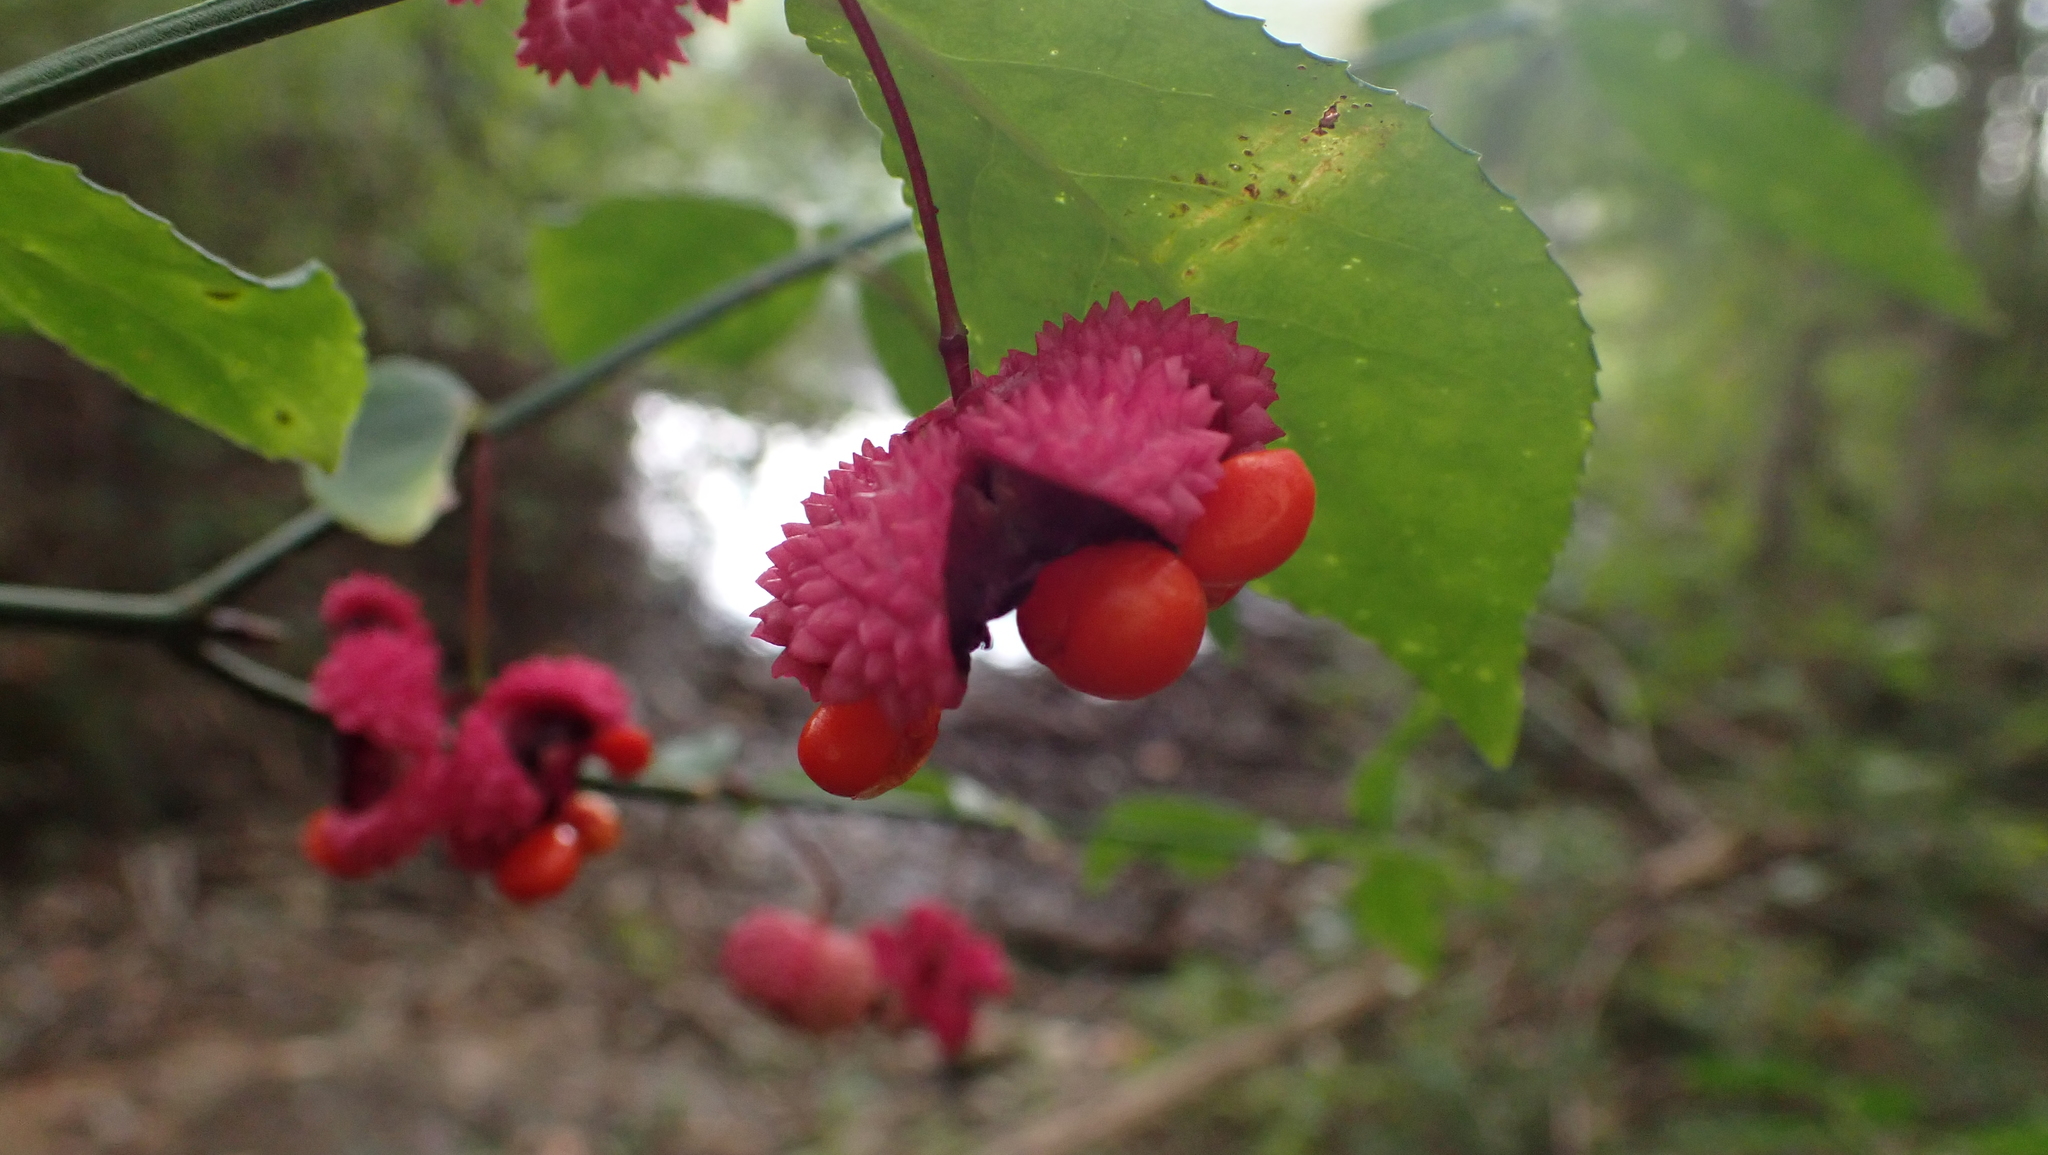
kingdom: Plantae
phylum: Tracheophyta
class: Magnoliopsida
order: Celastrales
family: Celastraceae
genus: Euonymus
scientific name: Euonymus americanus
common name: Bursting-heart
